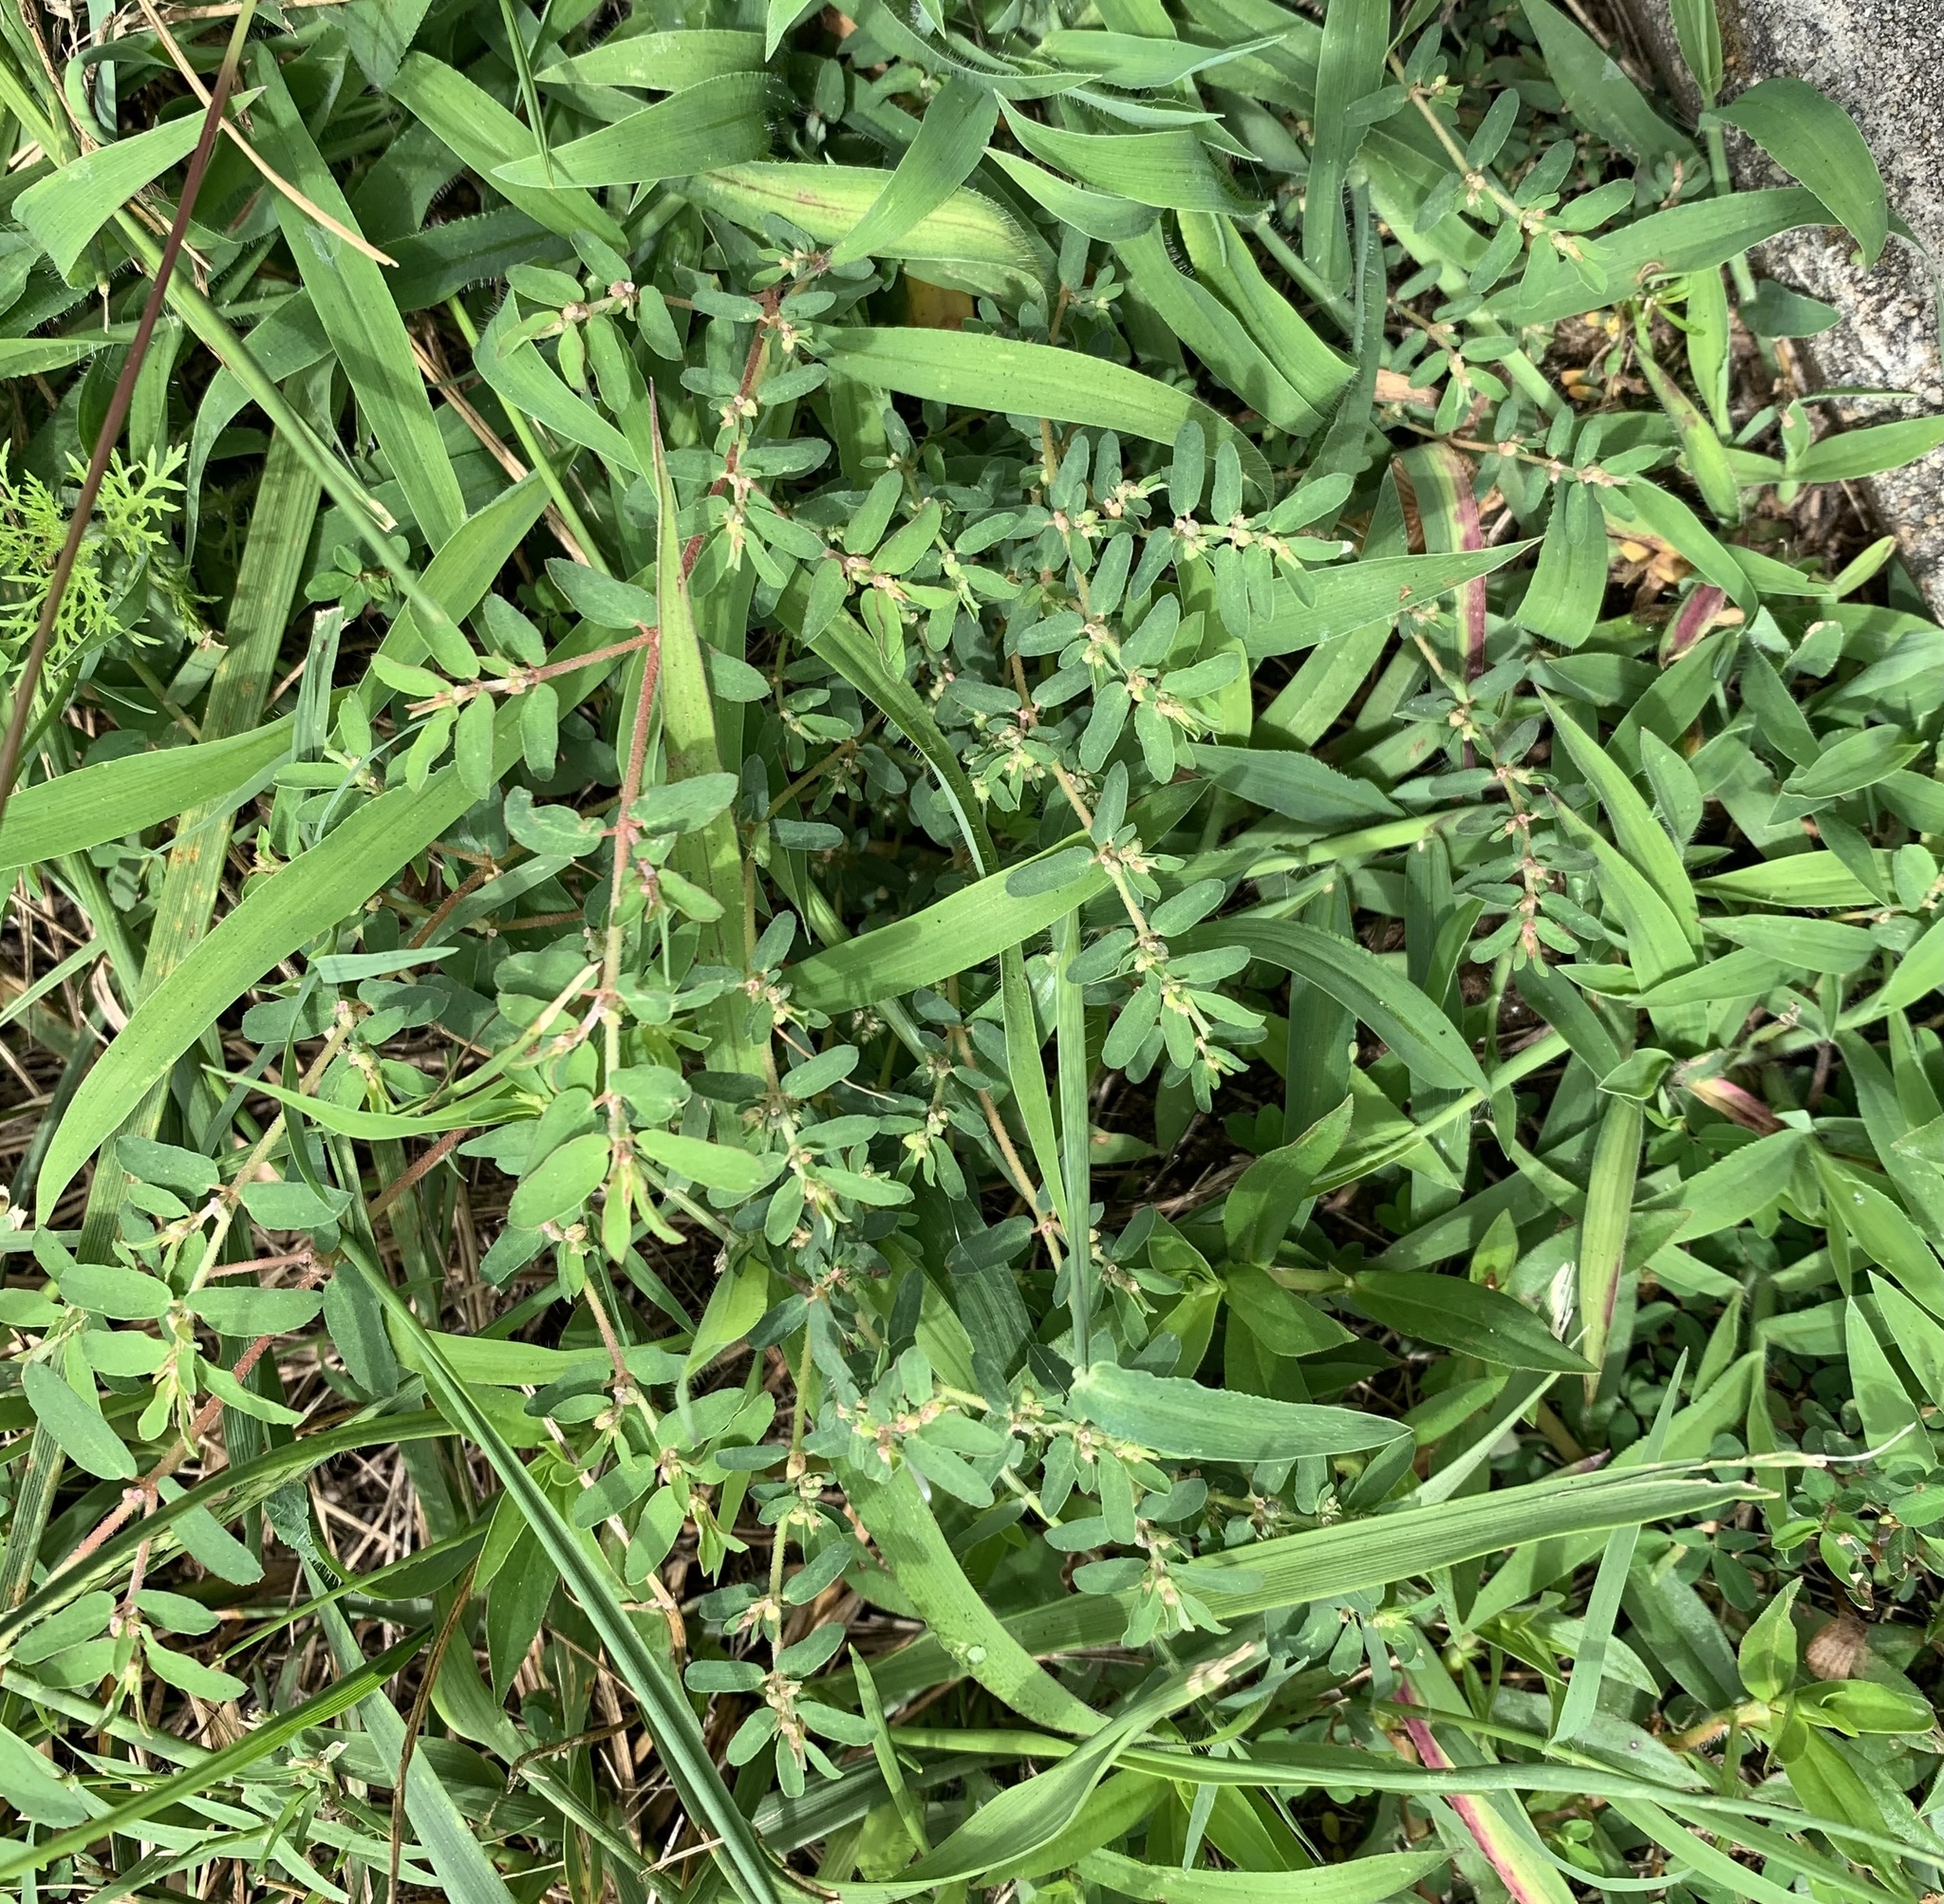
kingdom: Plantae
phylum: Tracheophyta
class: Magnoliopsida
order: Malpighiales
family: Euphorbiaceae
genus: Euphorbia
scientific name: Euphorbia maculata
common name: Spotted spurge
